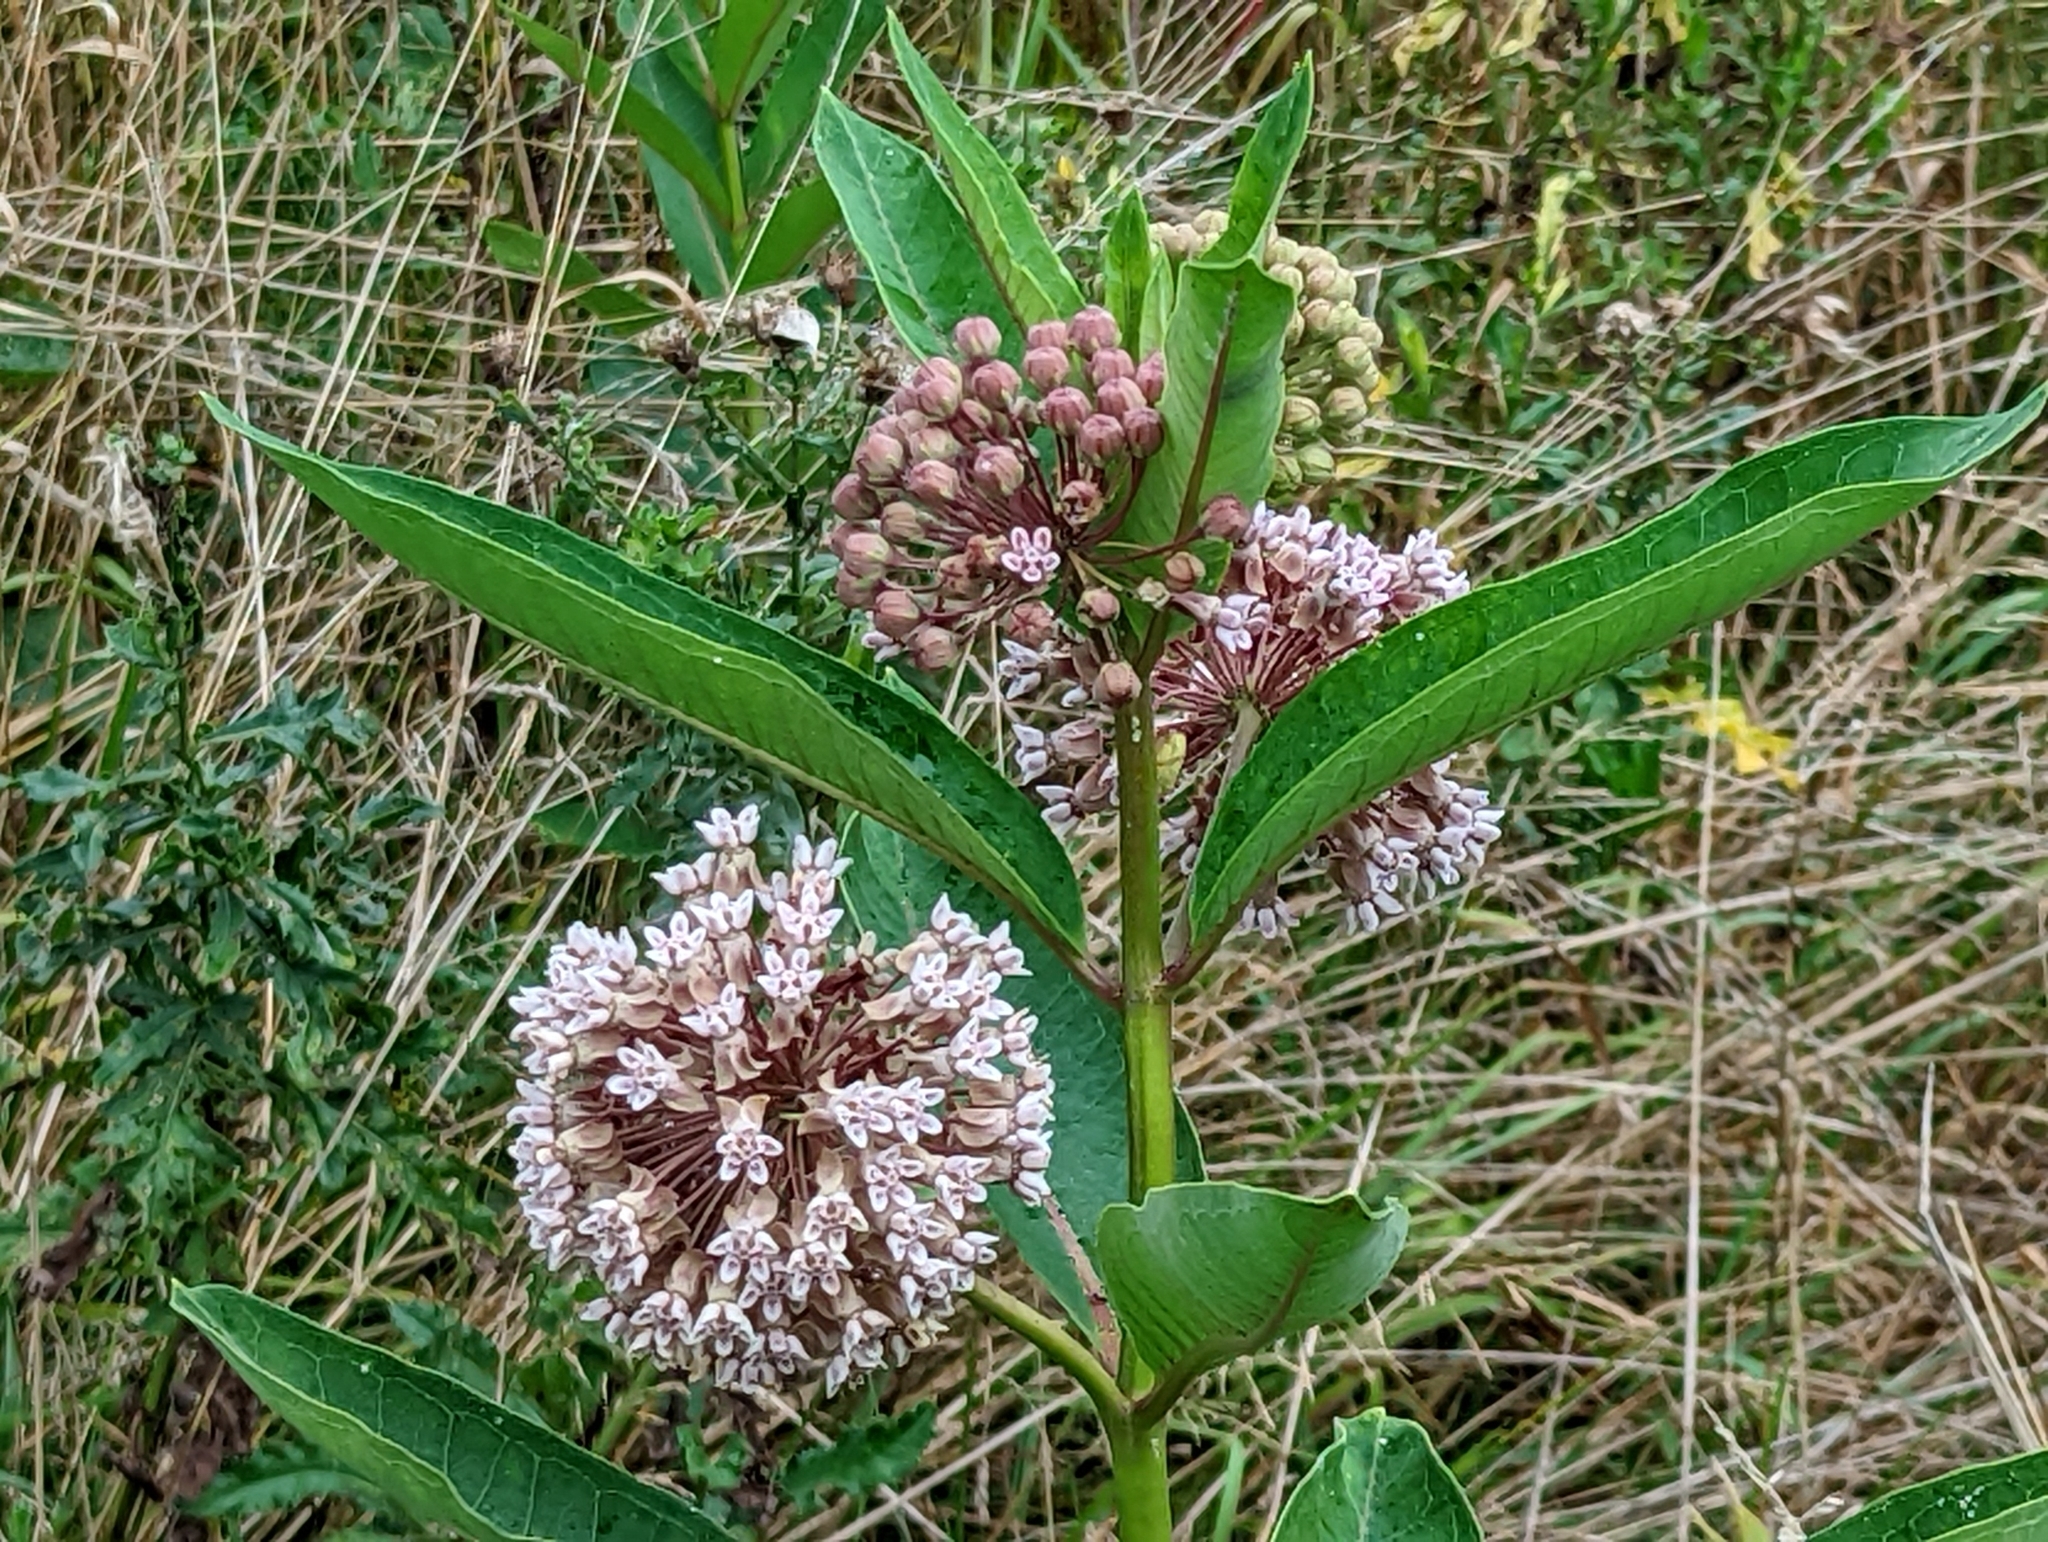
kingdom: Plantae
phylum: Tracheophyta
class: Magnoliopsida
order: Gentianales
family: Apocynaceae
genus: Asclepias
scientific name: Asclepias syriaca
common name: Common milkweed
